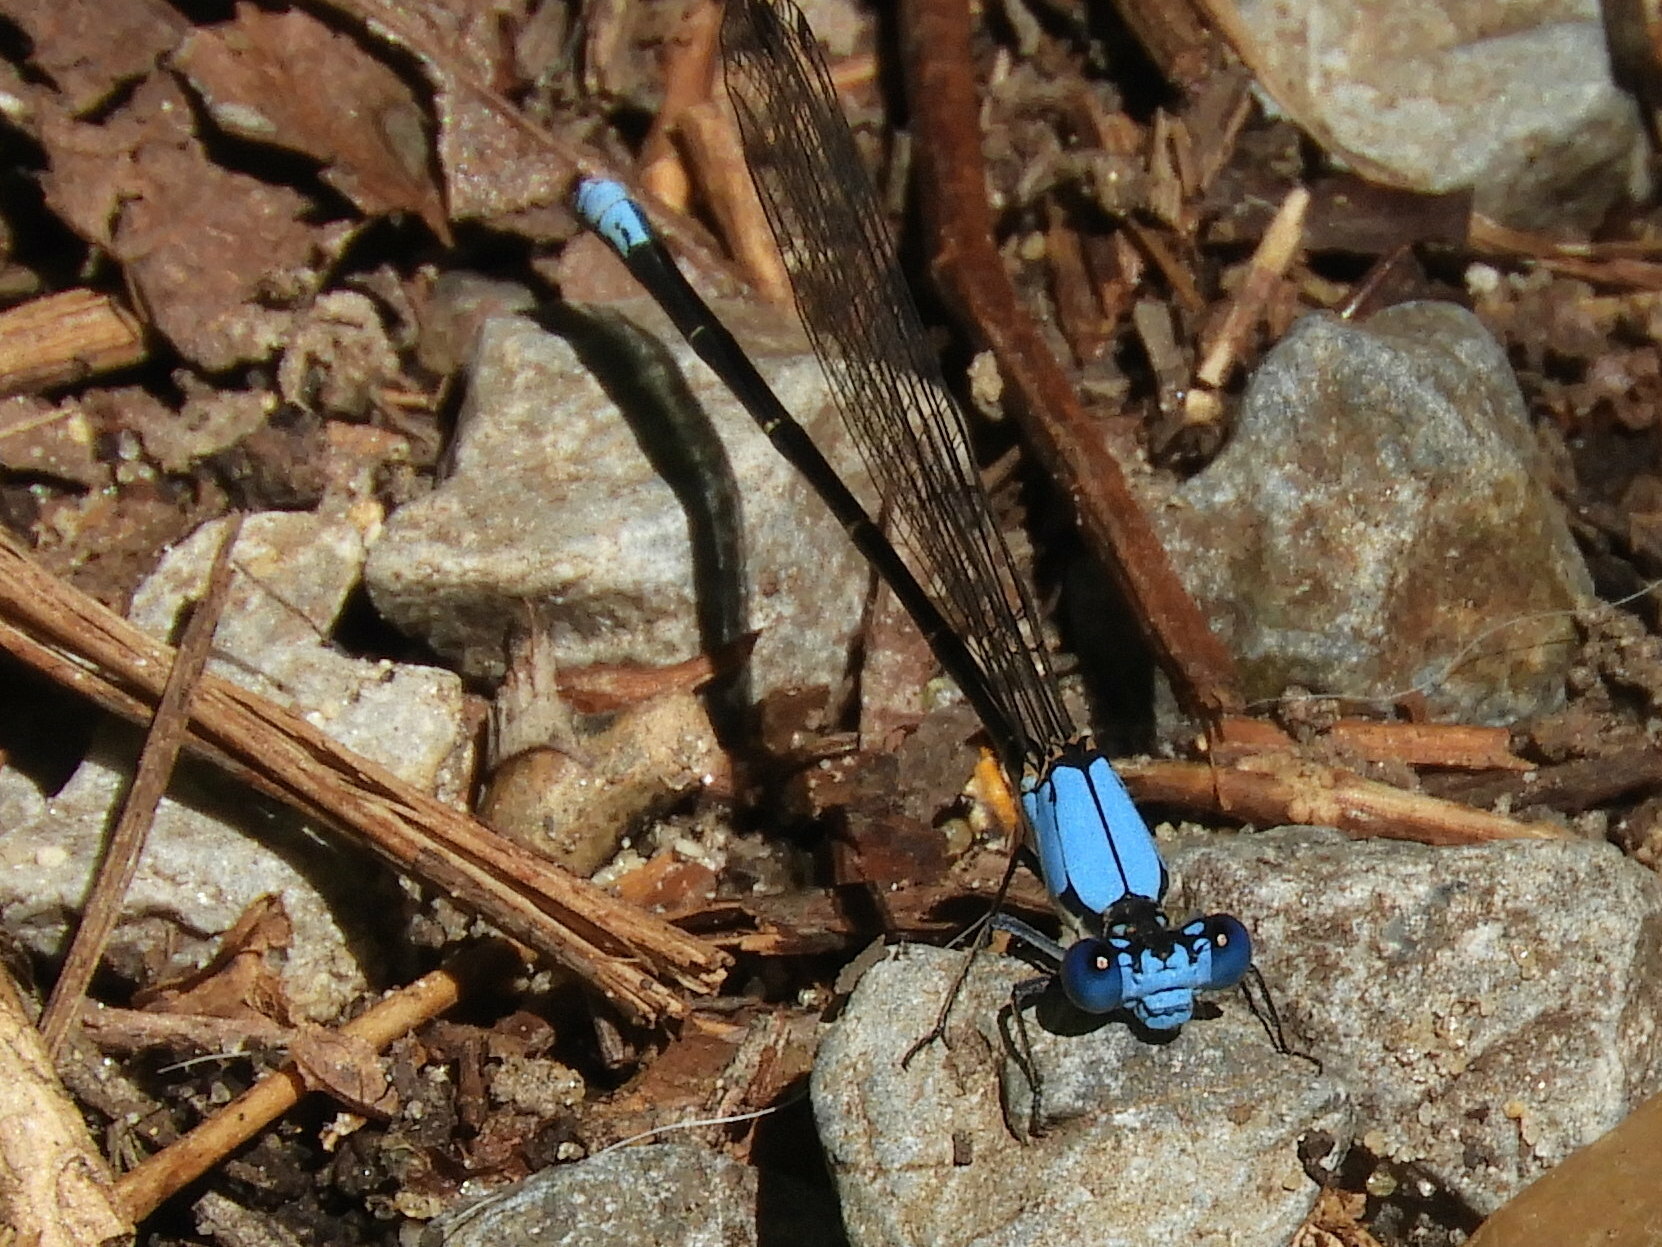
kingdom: Animalia
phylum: Arthropoda
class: Insecta
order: Odonata
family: Coenagrionidae
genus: Argia
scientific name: Argia apicalis
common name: Blue-fronted dancer
